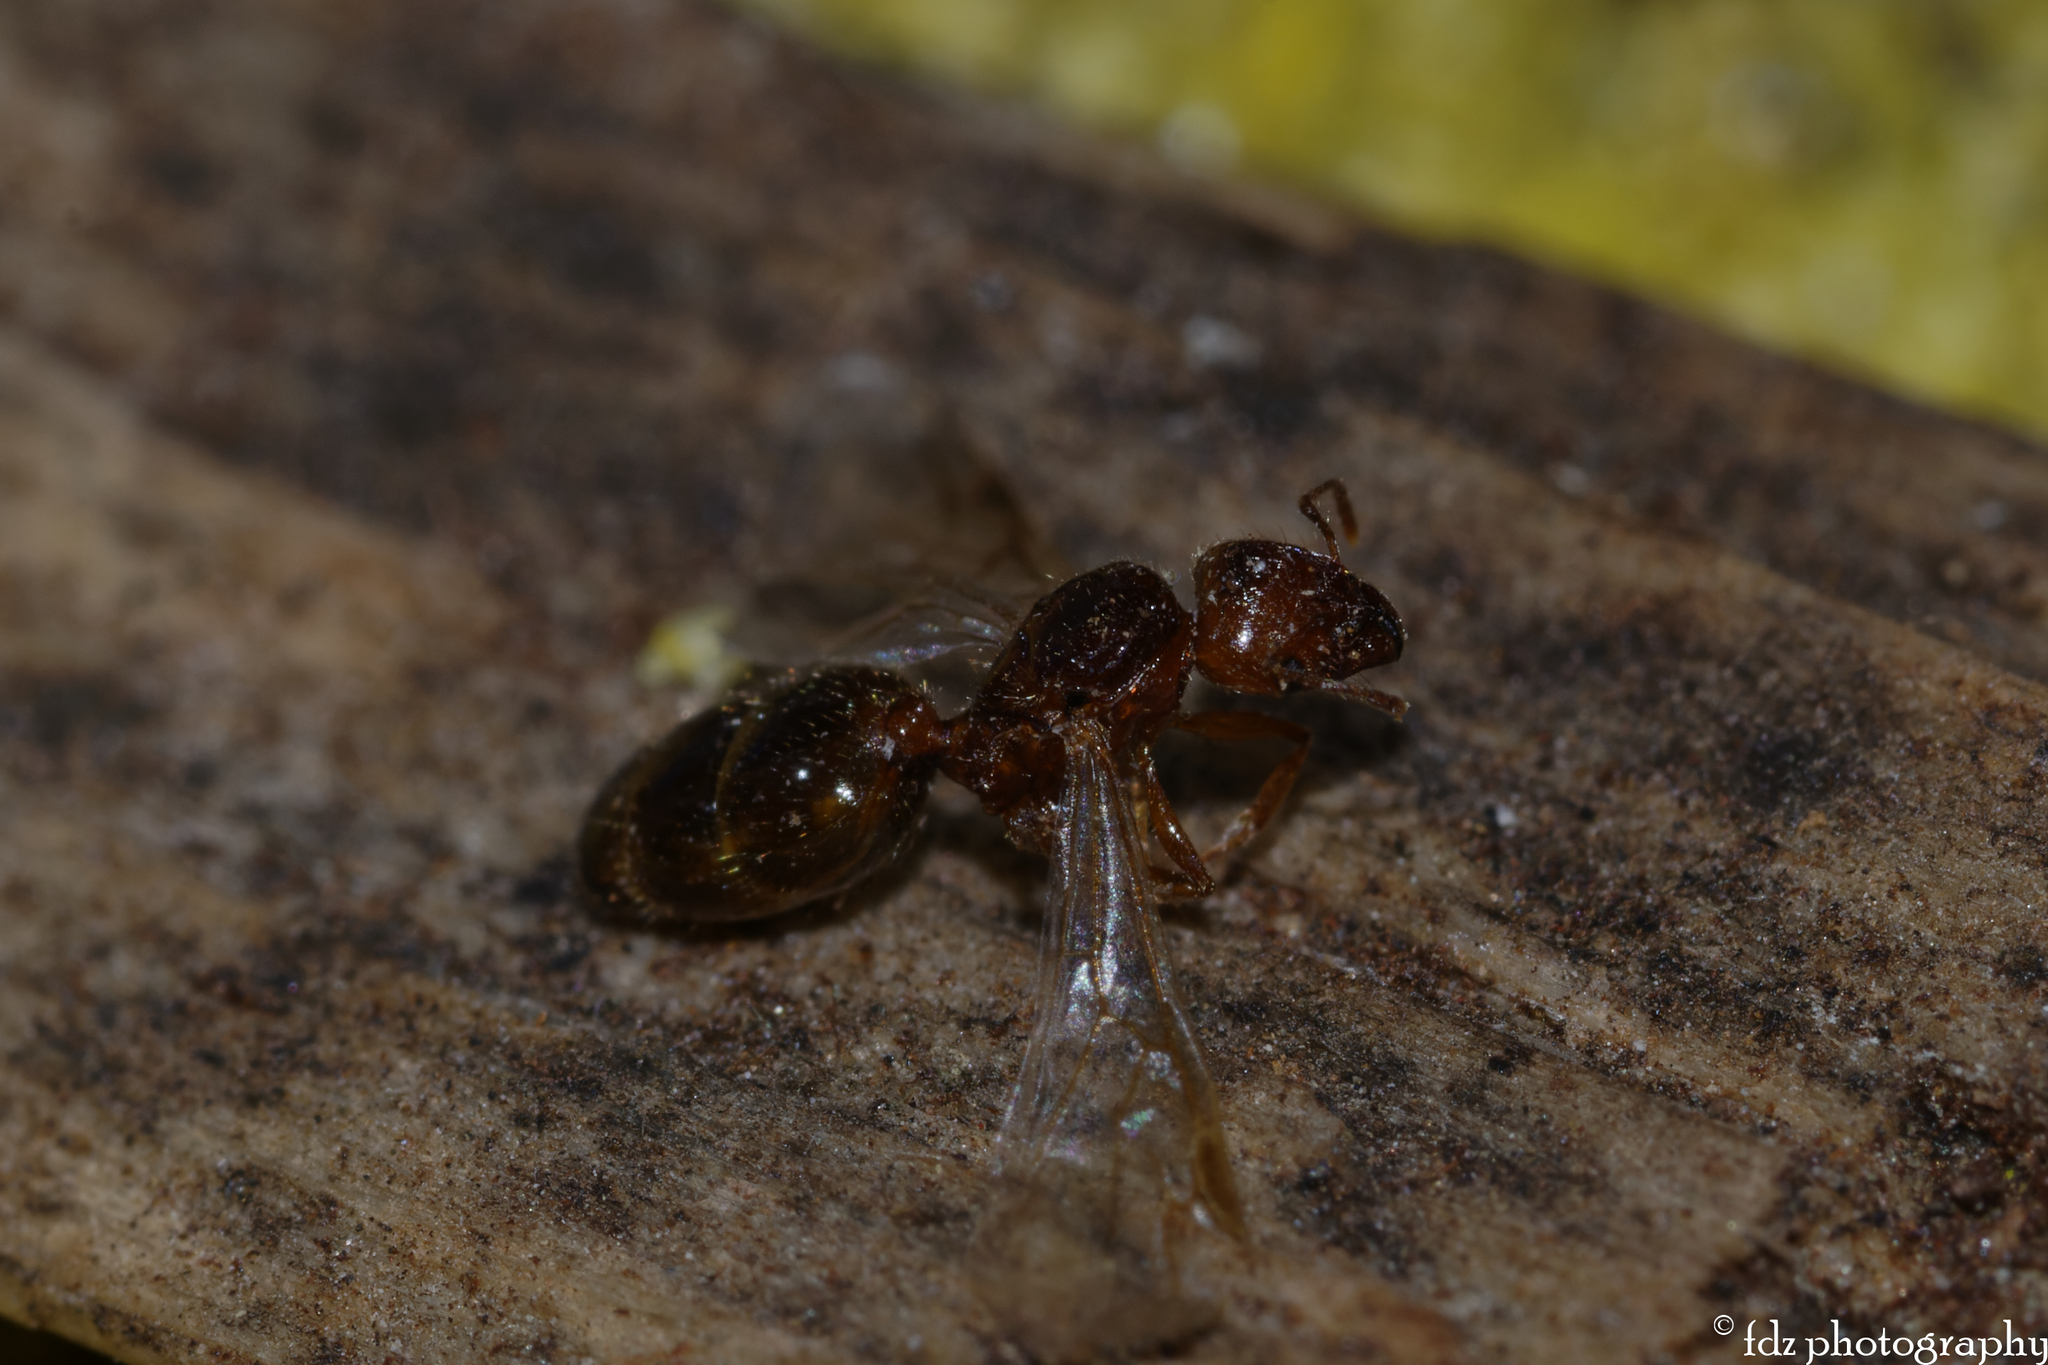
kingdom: Animalia
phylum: Arthropoda
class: Insecta
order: Hymenoptera
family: Formicidae
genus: Pheidole
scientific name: Pheidole pallidula
